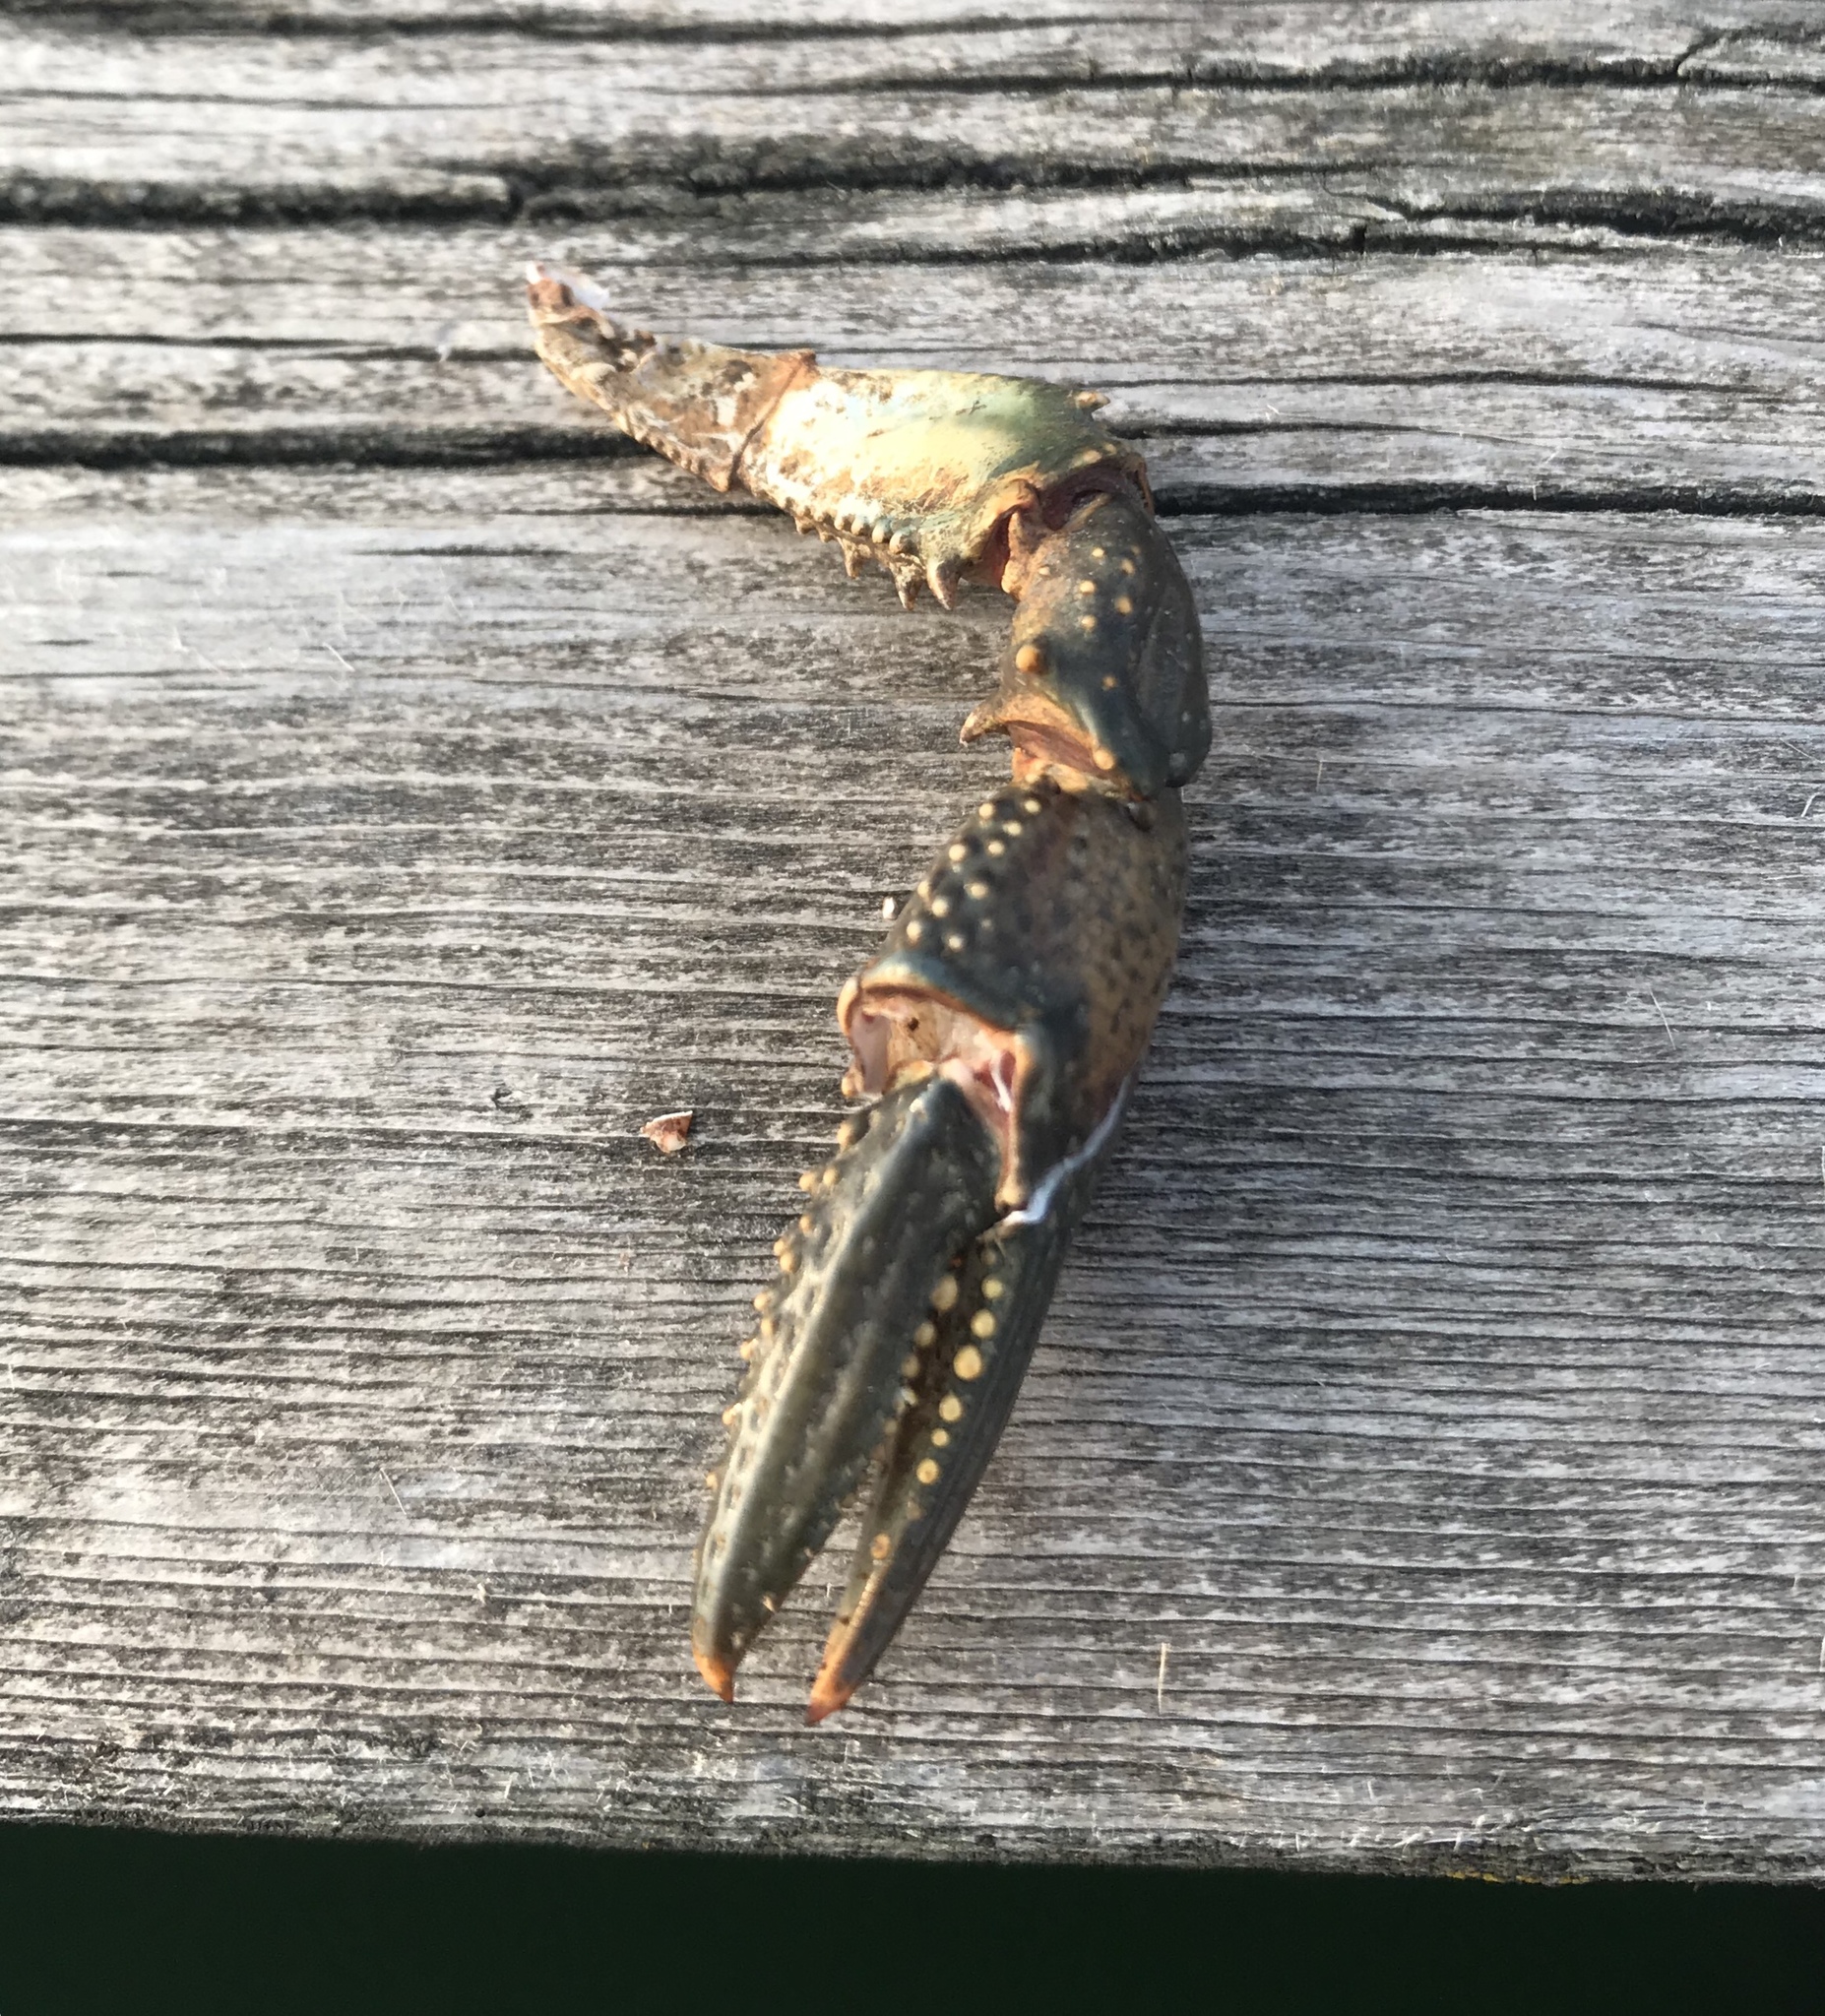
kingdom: Animalia
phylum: Arthropoda
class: Malacostraca
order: Decapoda
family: Cambaridae
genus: Faxonius
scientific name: Faxonius virilis
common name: Virile crayfish
